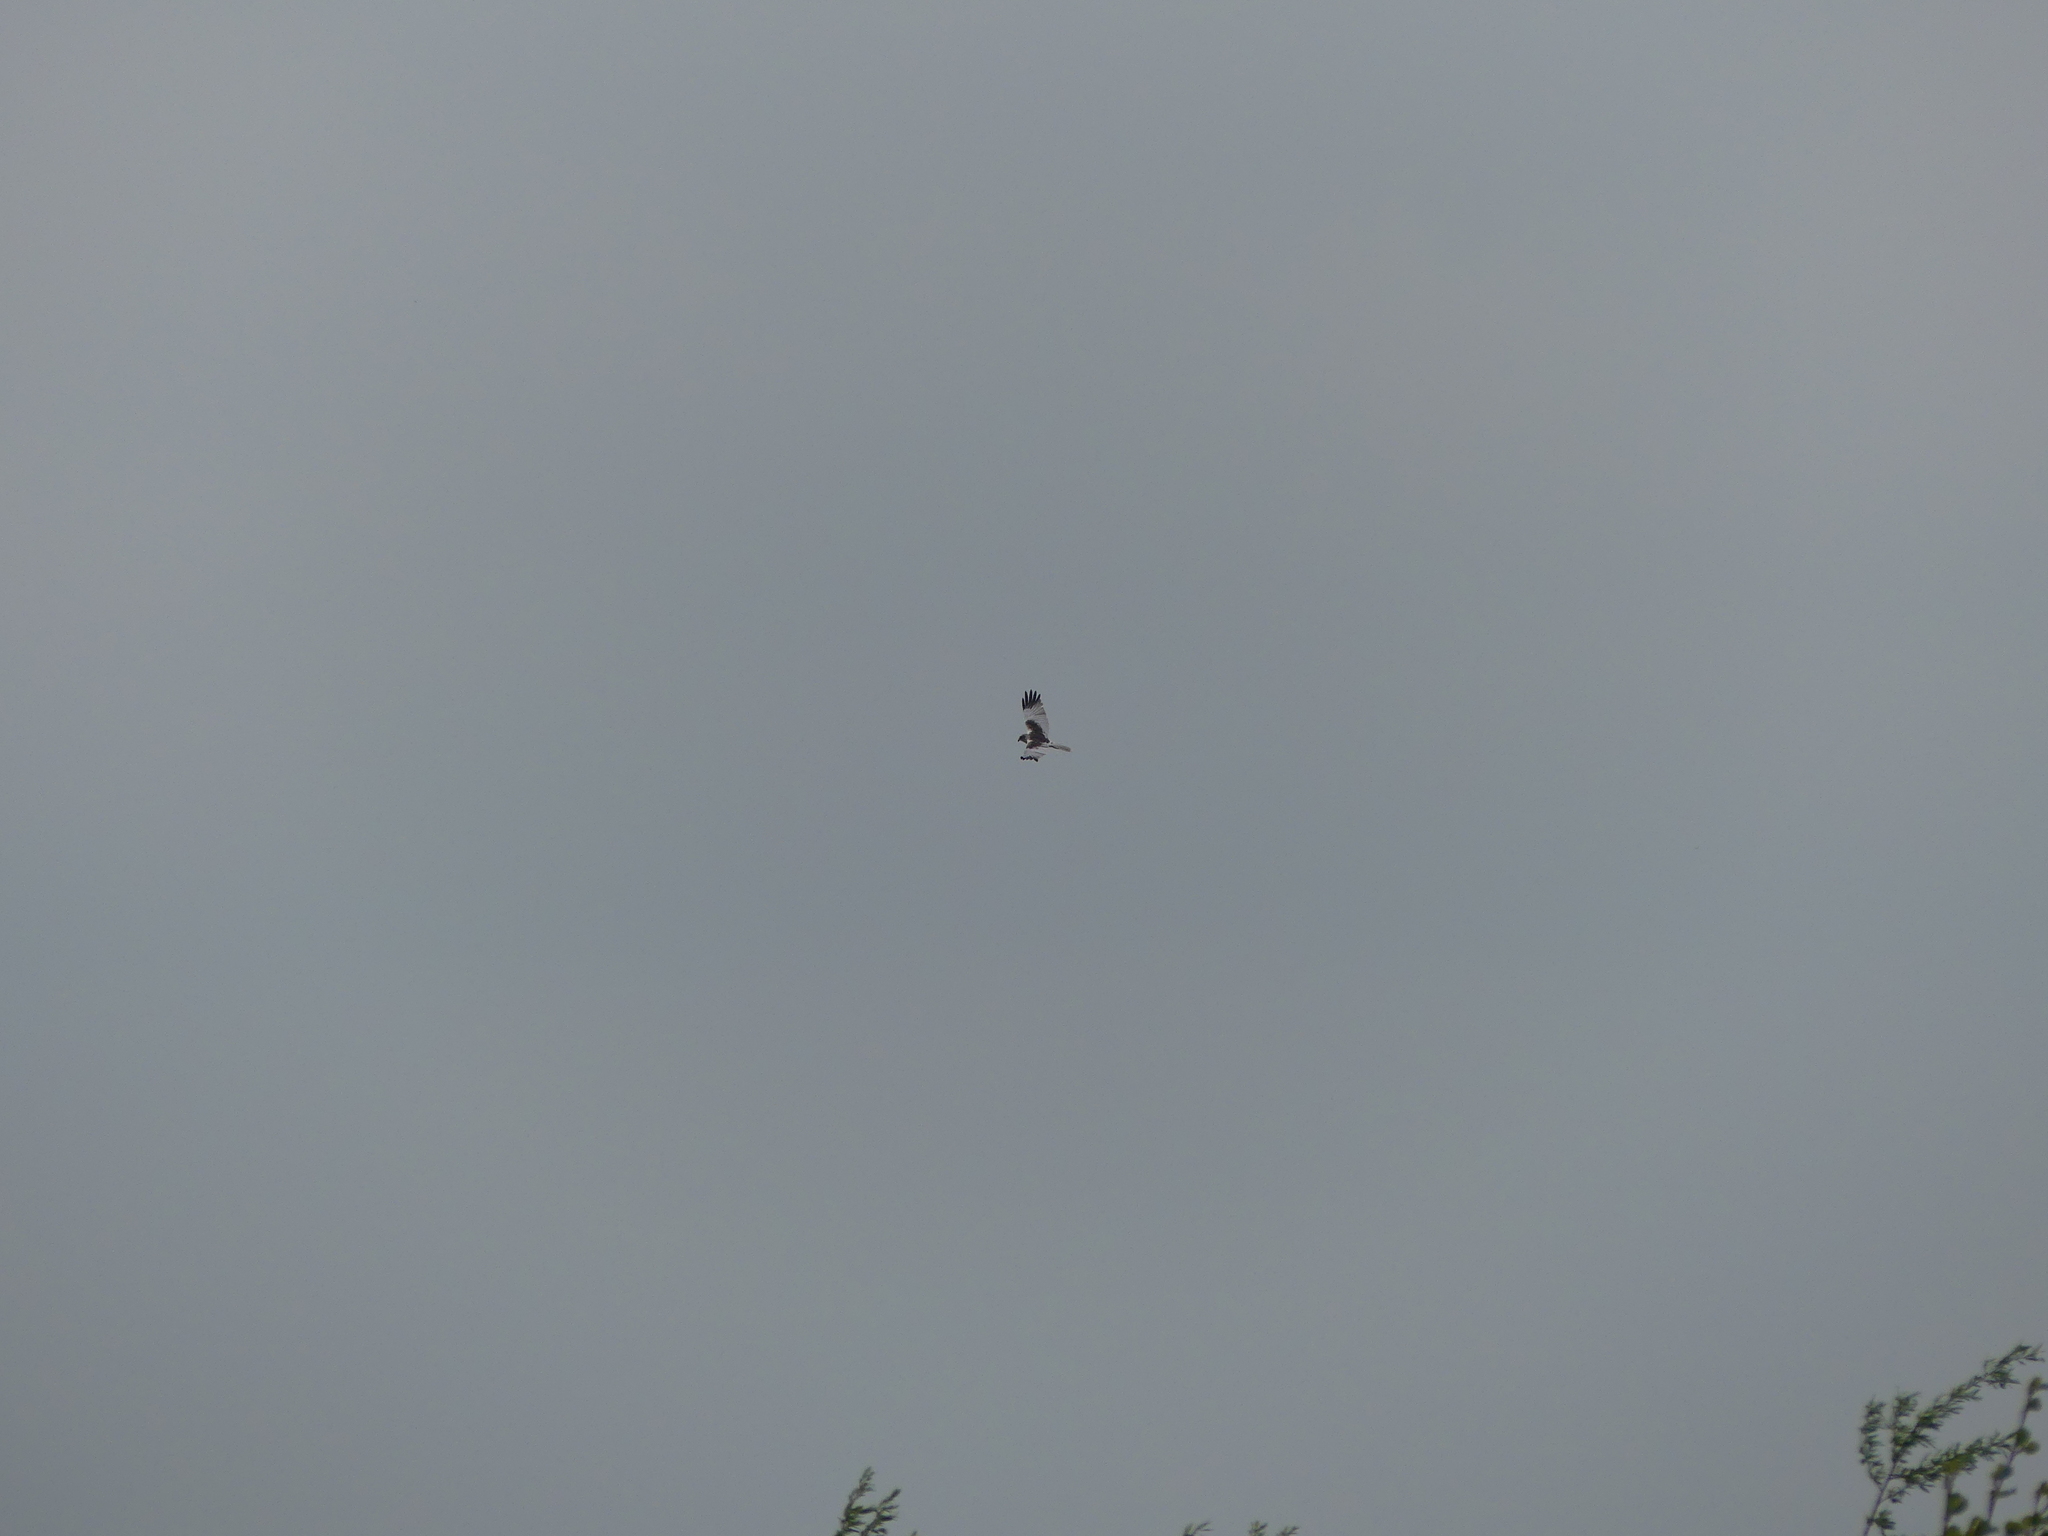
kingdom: Animalia
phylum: Chordata
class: Aves
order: Accipitriformes
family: Accipitridae
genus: Circus
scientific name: Circus aeruginosus
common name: Western marsh harrier
